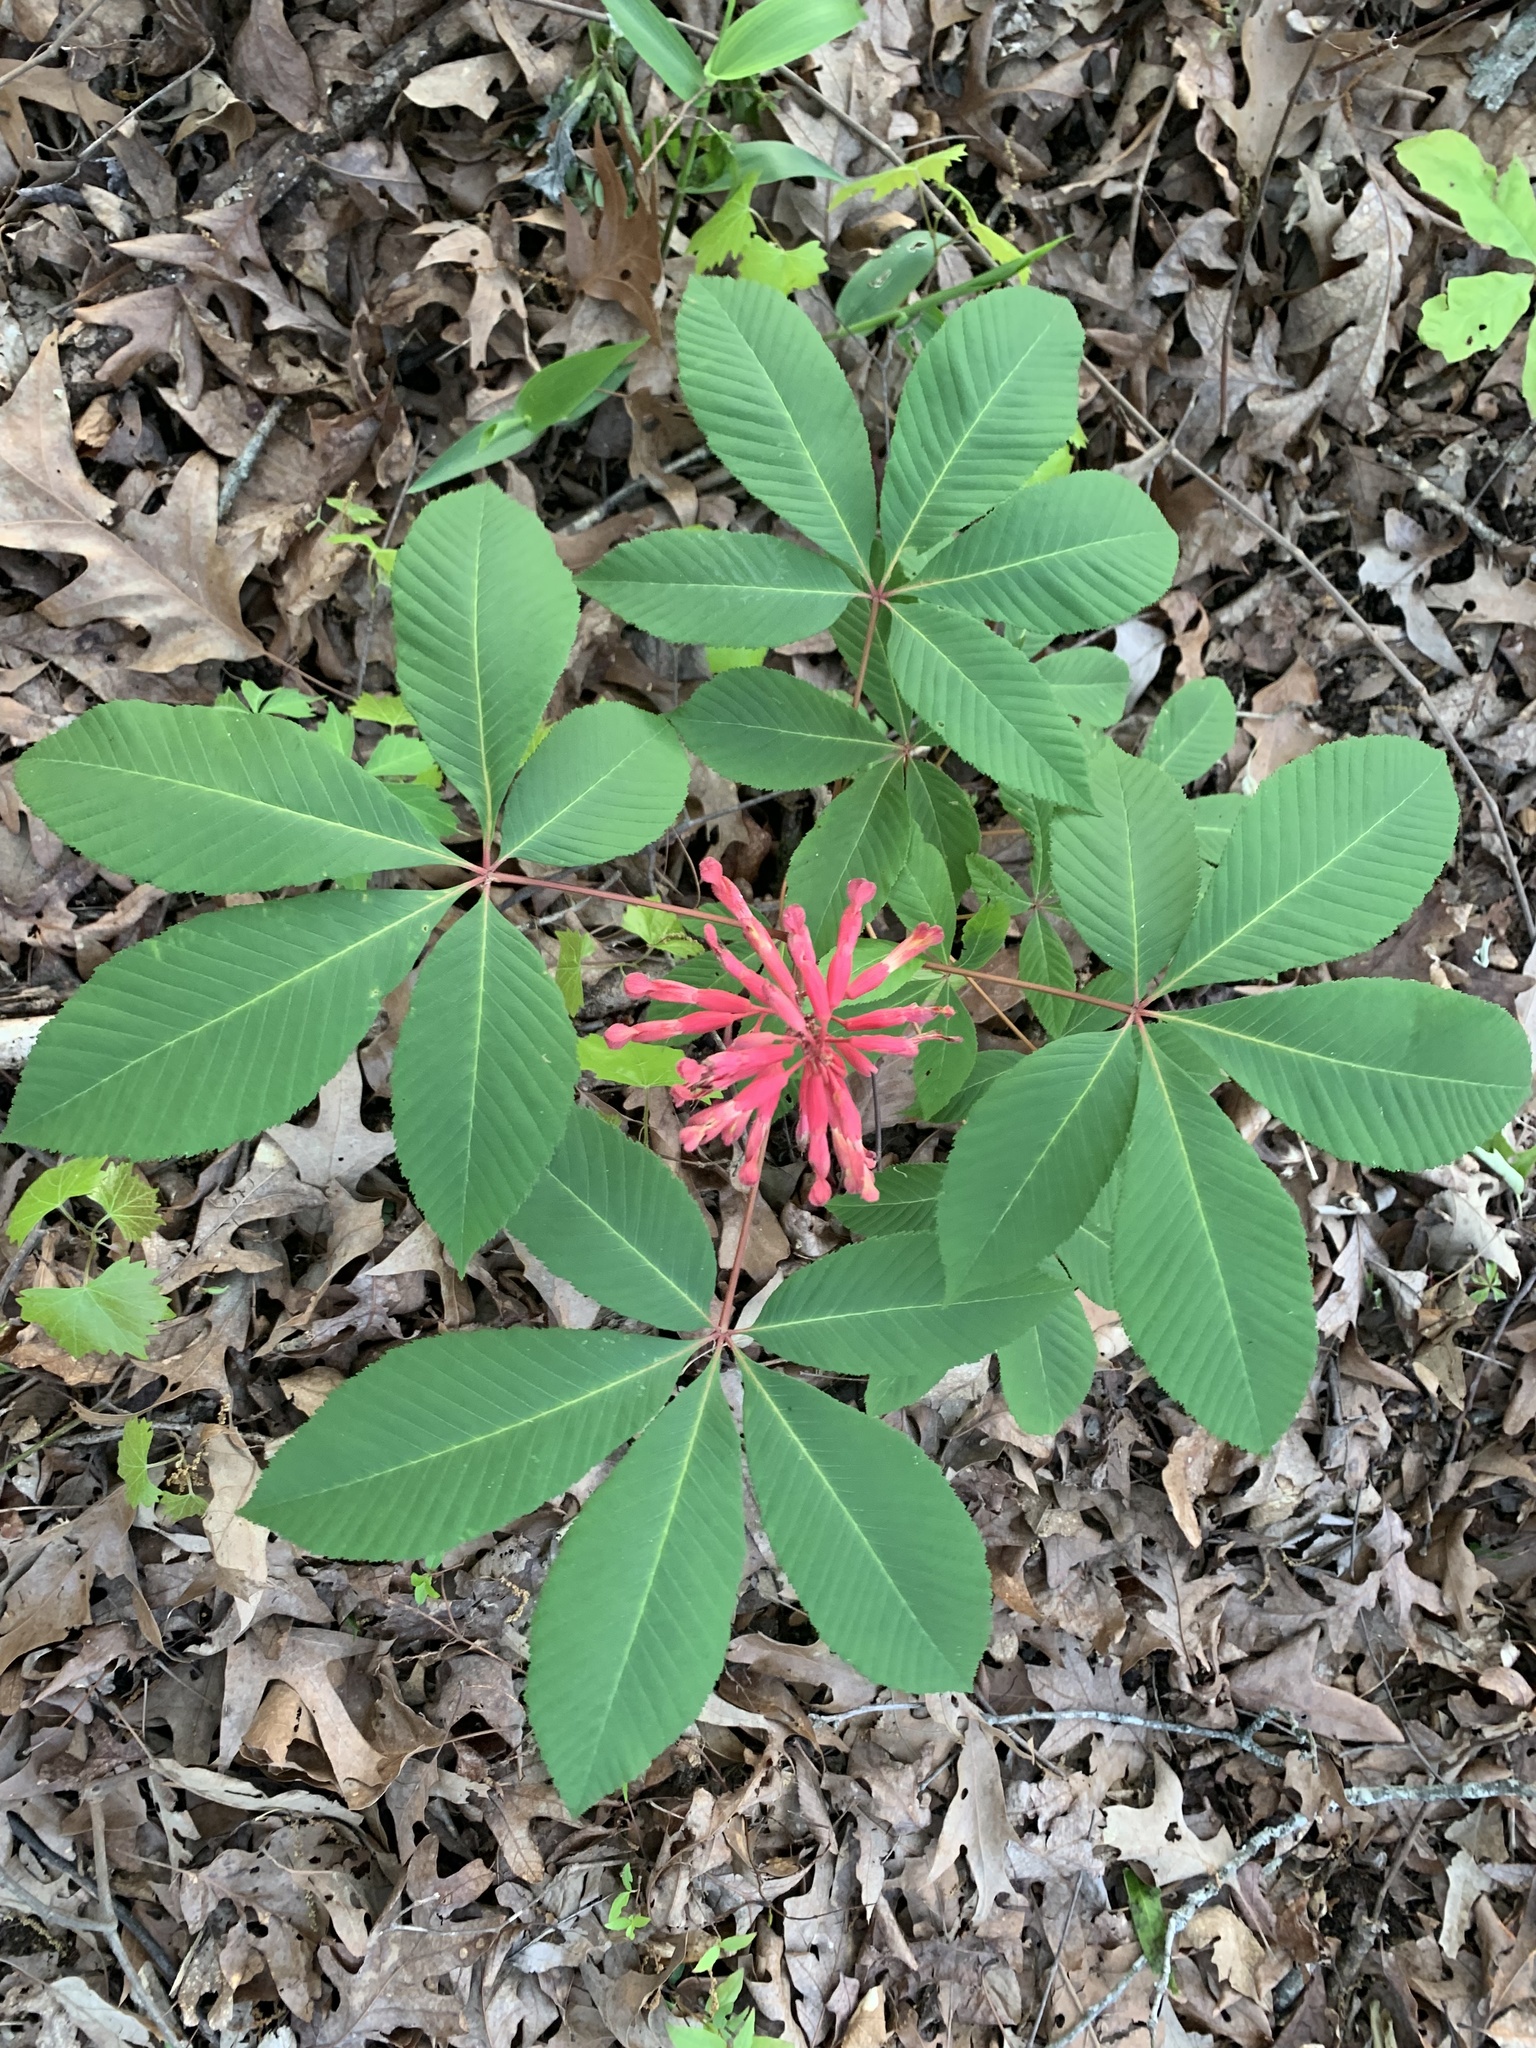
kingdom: Plantae
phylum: Tracheophyta
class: Magnoliopsida
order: Sapindales
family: Sapindaceae
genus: Aesculus
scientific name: Aesculus pavia
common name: Red buckeye
